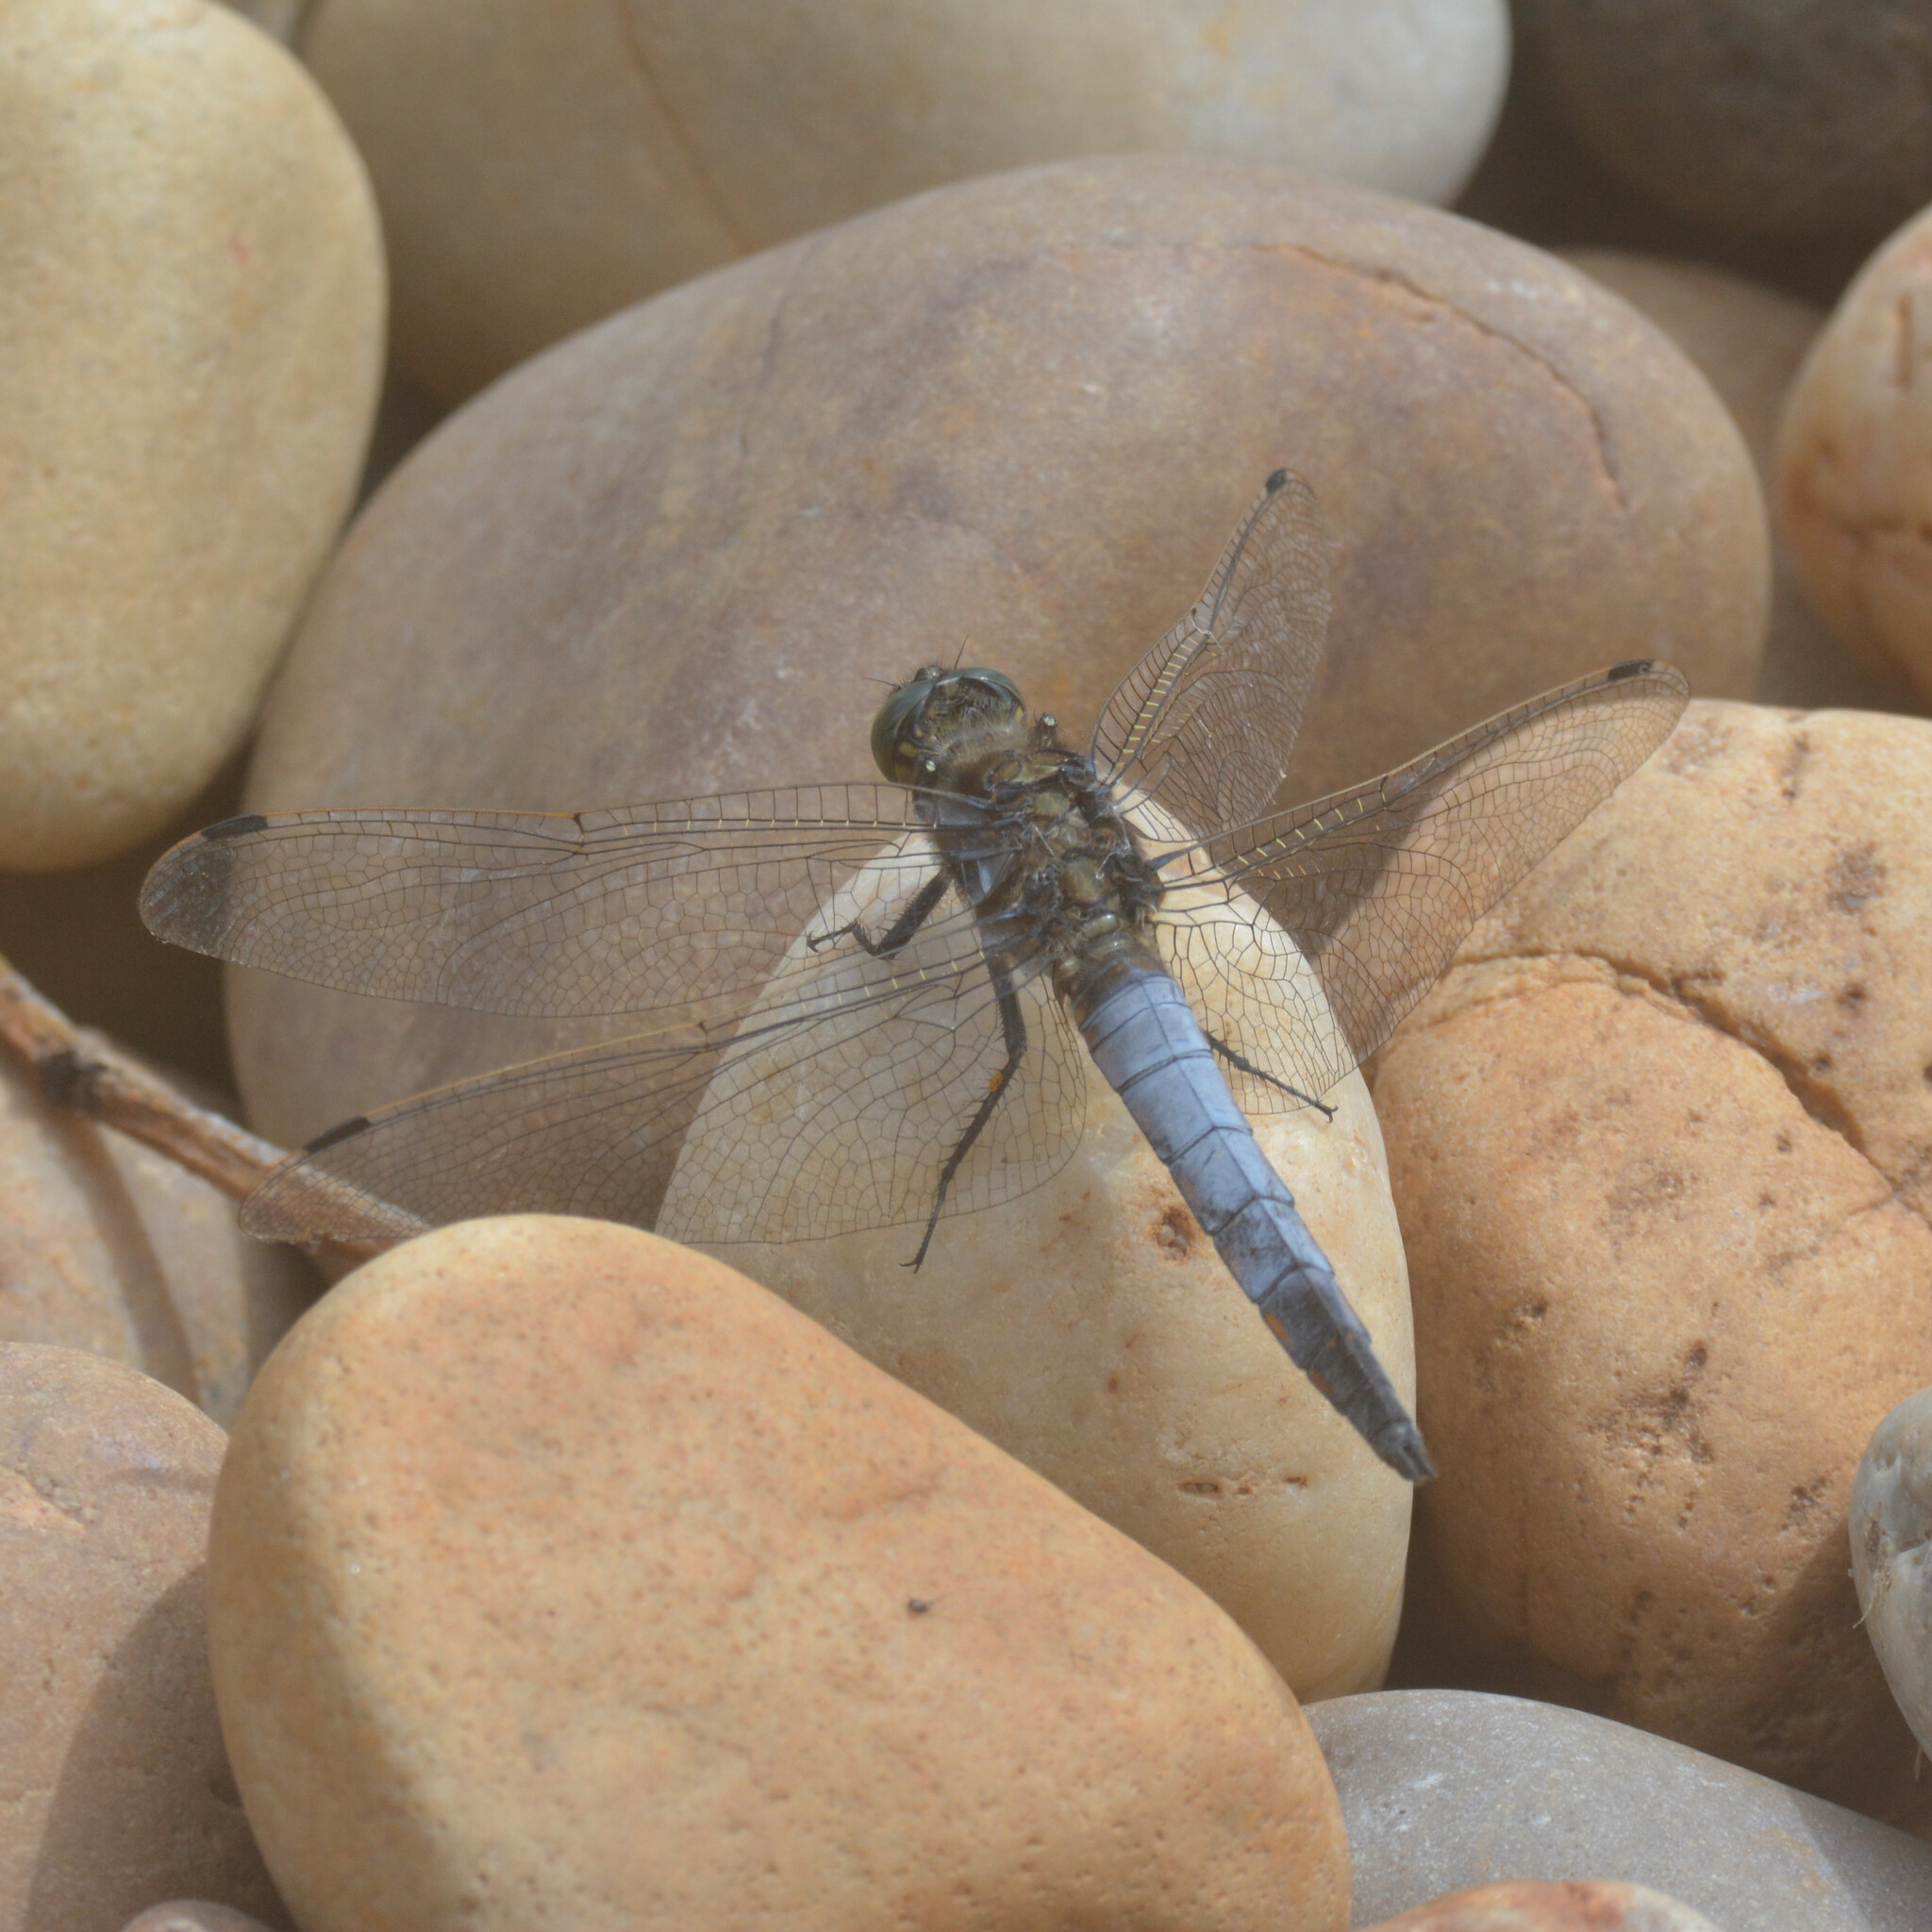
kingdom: Animalia
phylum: Arthropoda
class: Insecta
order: Odonata
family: Libellulidae
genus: Orthetrum
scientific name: Orthetrum cancellatum
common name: Black-tailed skimmer
